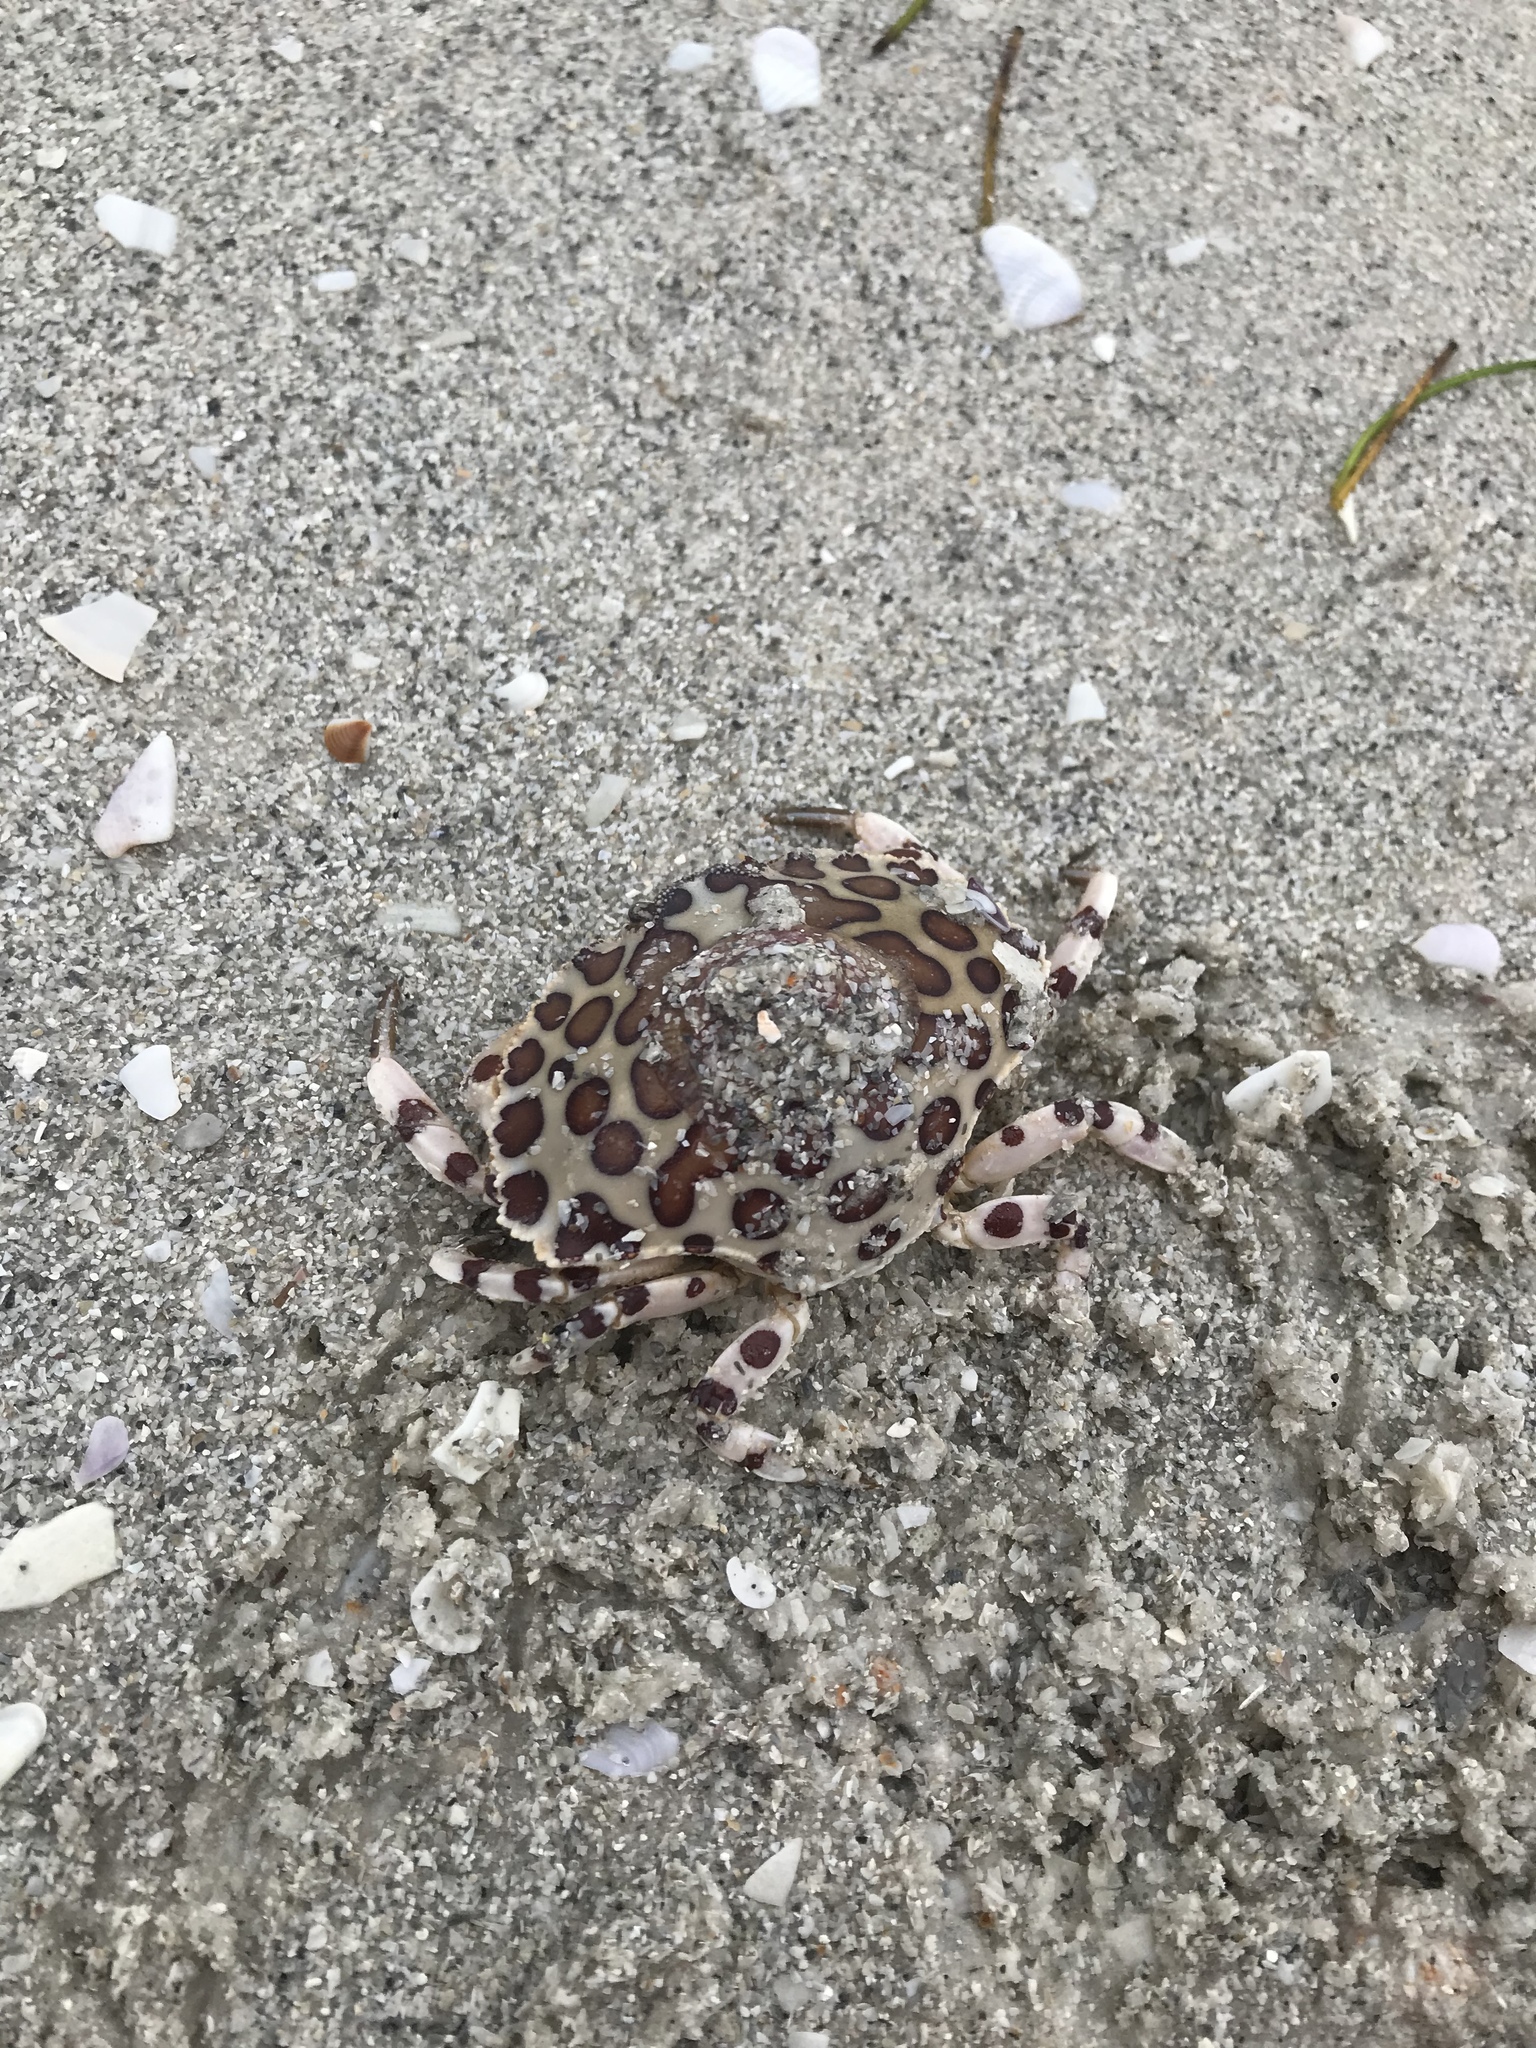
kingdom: Animalia
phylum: Arthropoda
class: Malacostraca
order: Decapoda
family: Aethridae
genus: Hepatus
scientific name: Hepatus epheliticus
